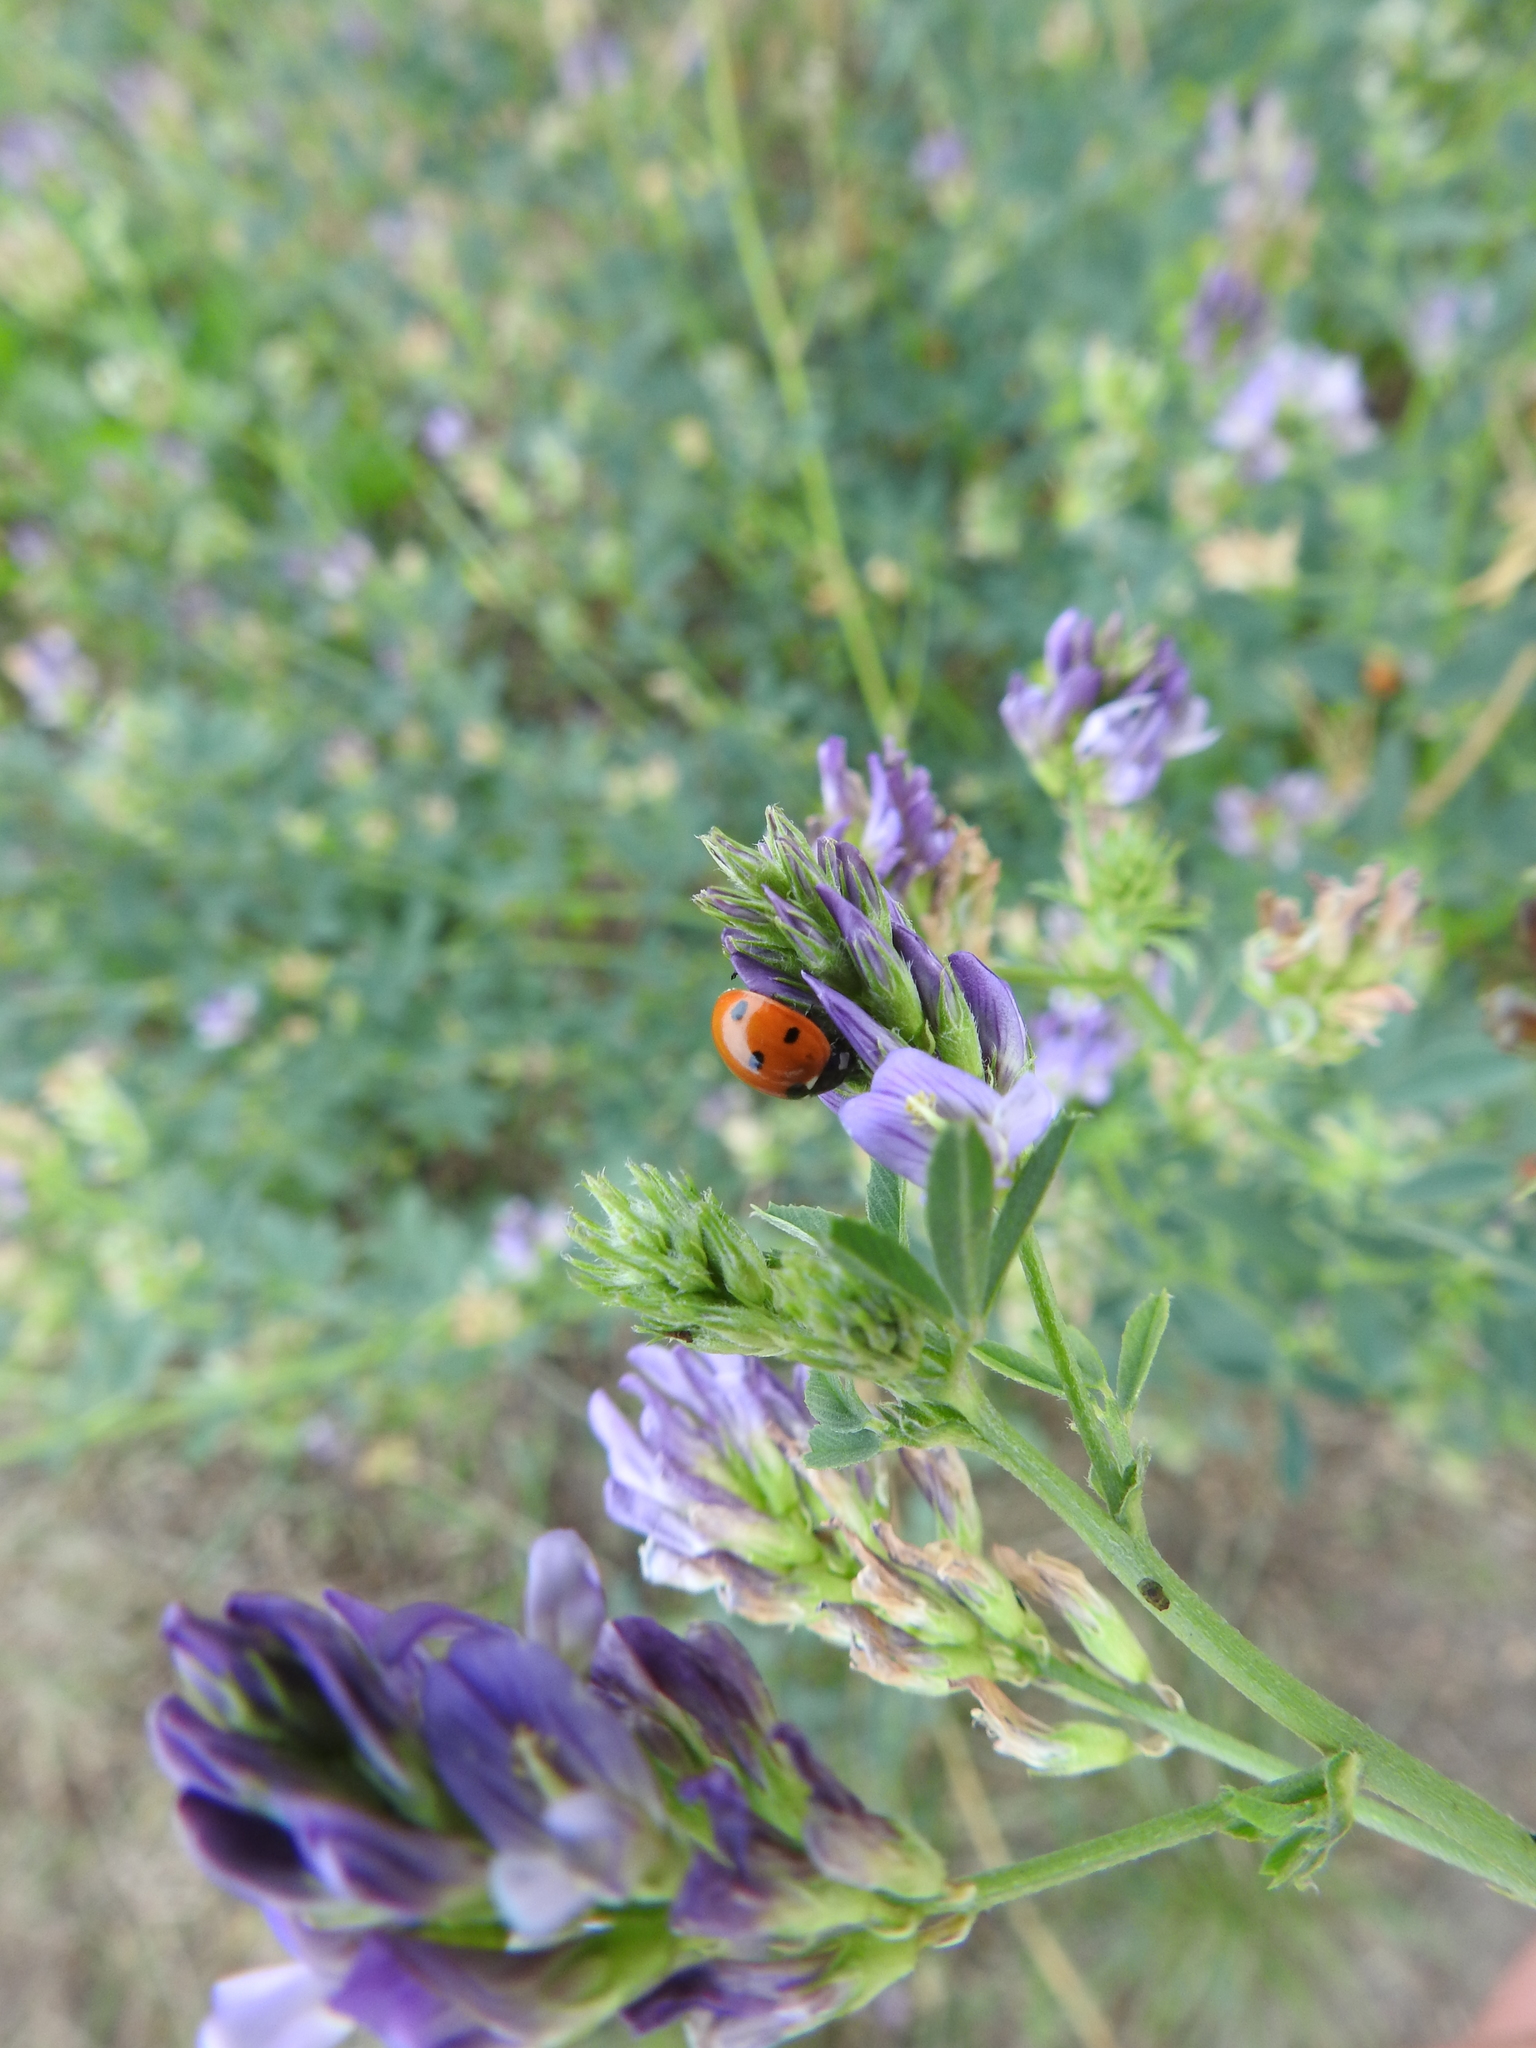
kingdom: Animalia
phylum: Arthropoda
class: Insecta
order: Coleoptera
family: Coccinellidae
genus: Coccinella
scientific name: Coccinella septempunctata
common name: Sevenspotted lady beetle
